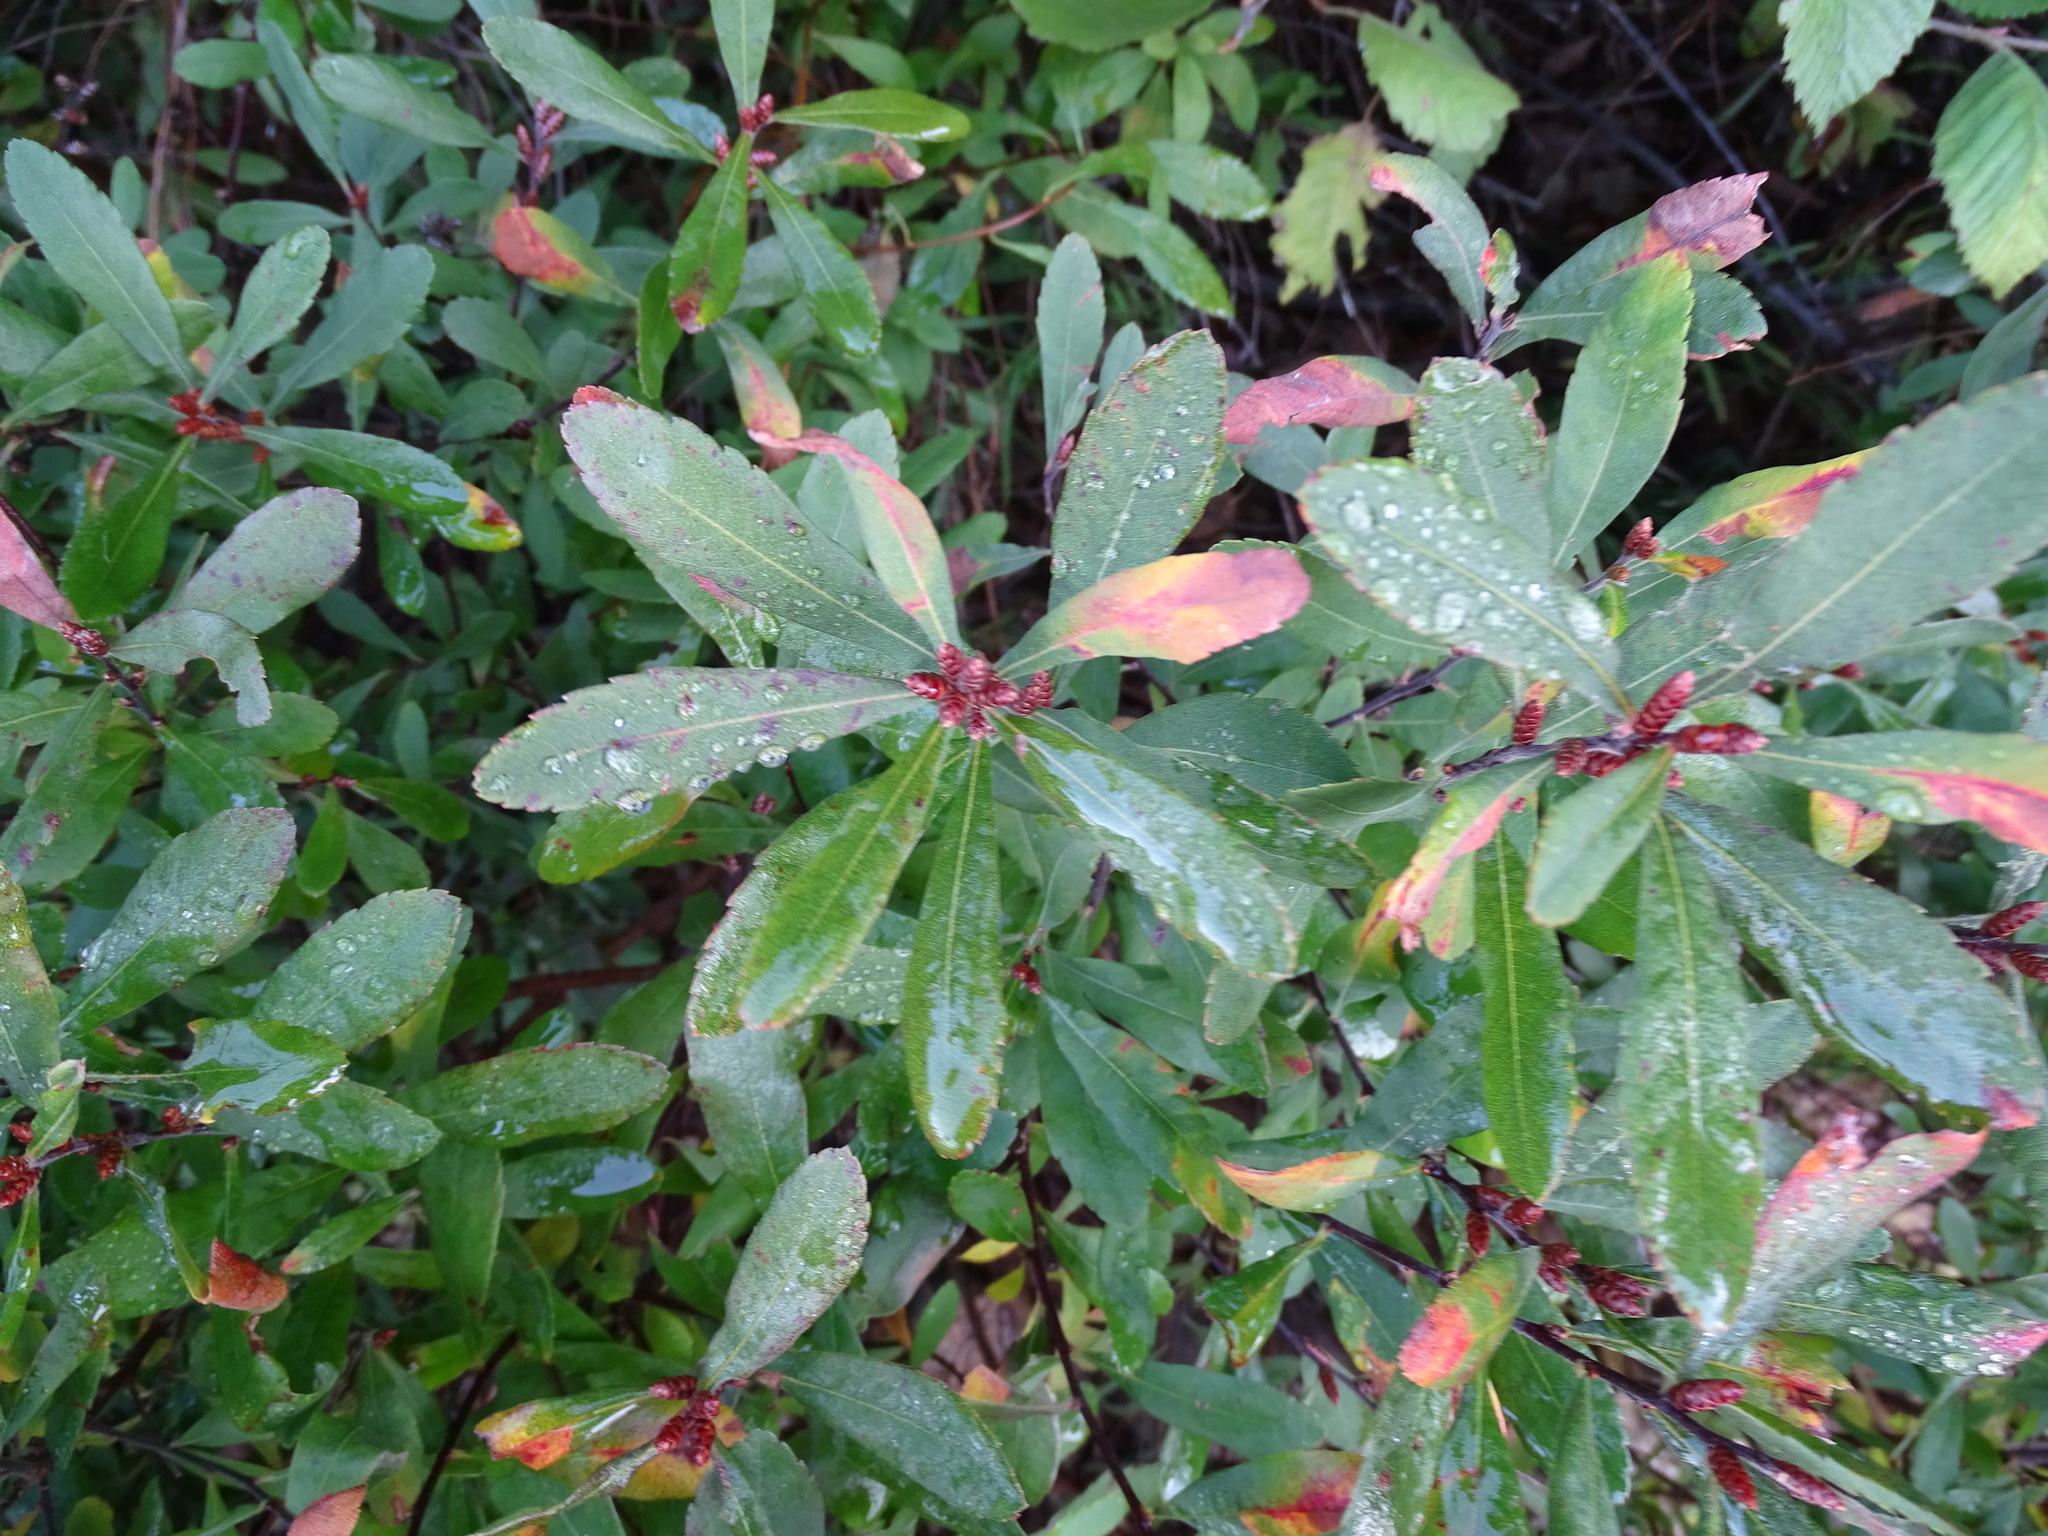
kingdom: Plantae
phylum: Tracheophyta
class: Magnoliopsida
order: Fagales
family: Myricaceae
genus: Myrica
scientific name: Myrica gale
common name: Sweet gale
